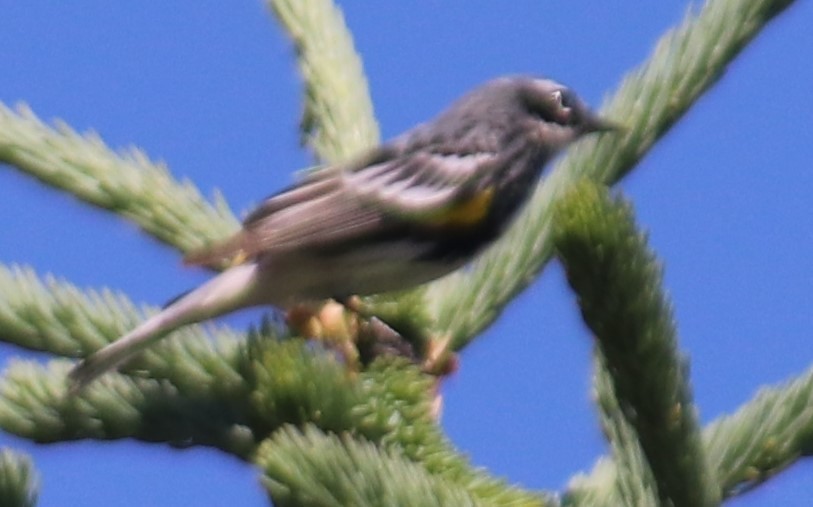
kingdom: Animalia
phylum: Chordata
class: Aves
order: Passeriformes
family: Parulidae
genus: Setophaga
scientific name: Setophaga coronata
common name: Myrtle warbler
